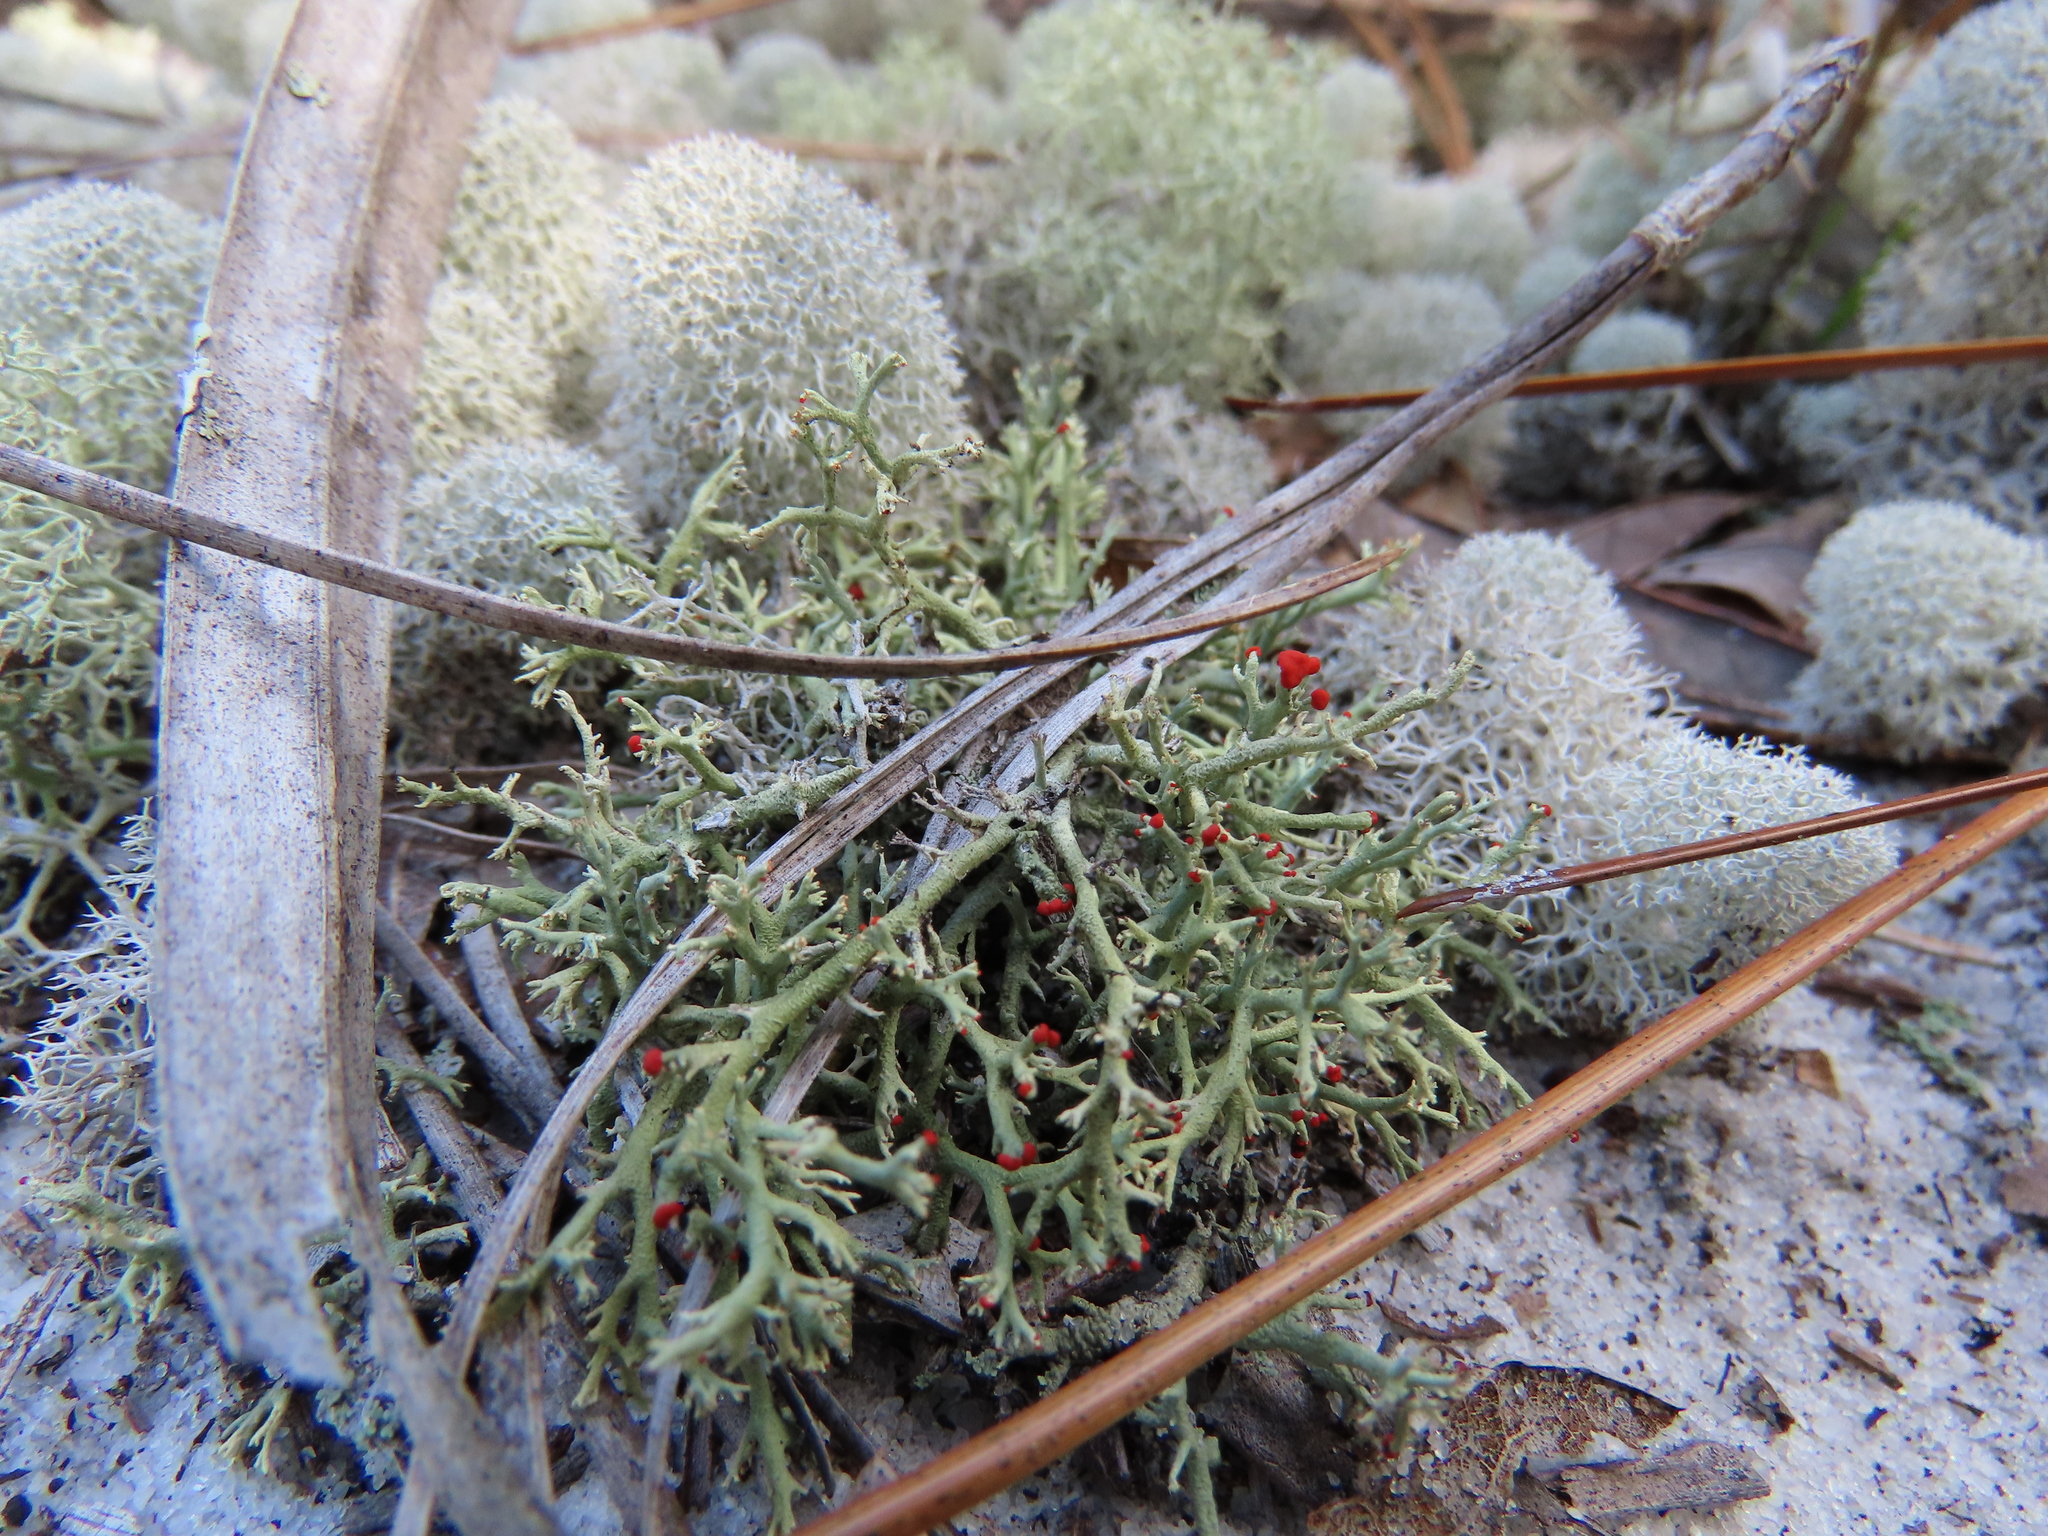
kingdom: Fungi
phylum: Ascomycota
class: Lecanoromycetes
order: Lecanorales
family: Cladoniaceae
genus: Cladonia
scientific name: Cladonia leporina
